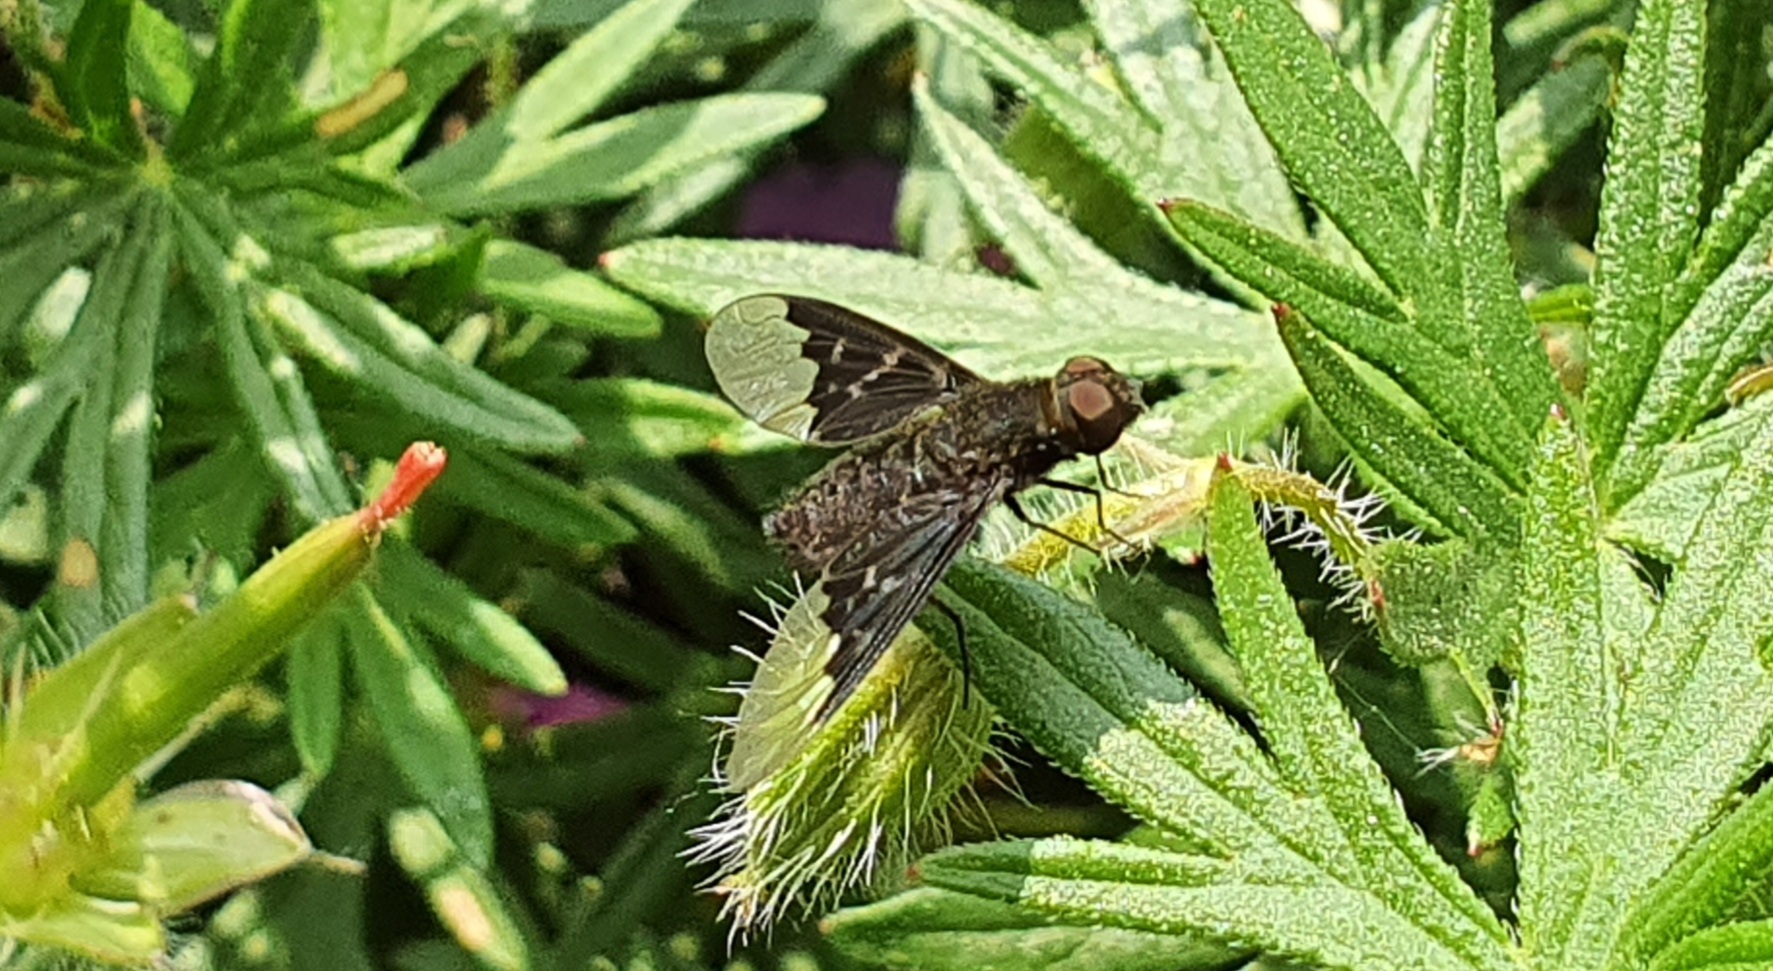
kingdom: Animalia
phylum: Arthropoda
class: Insecta
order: Diptera
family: Bombyliidae
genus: Hemipenthes
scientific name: Hemipenthes morio
